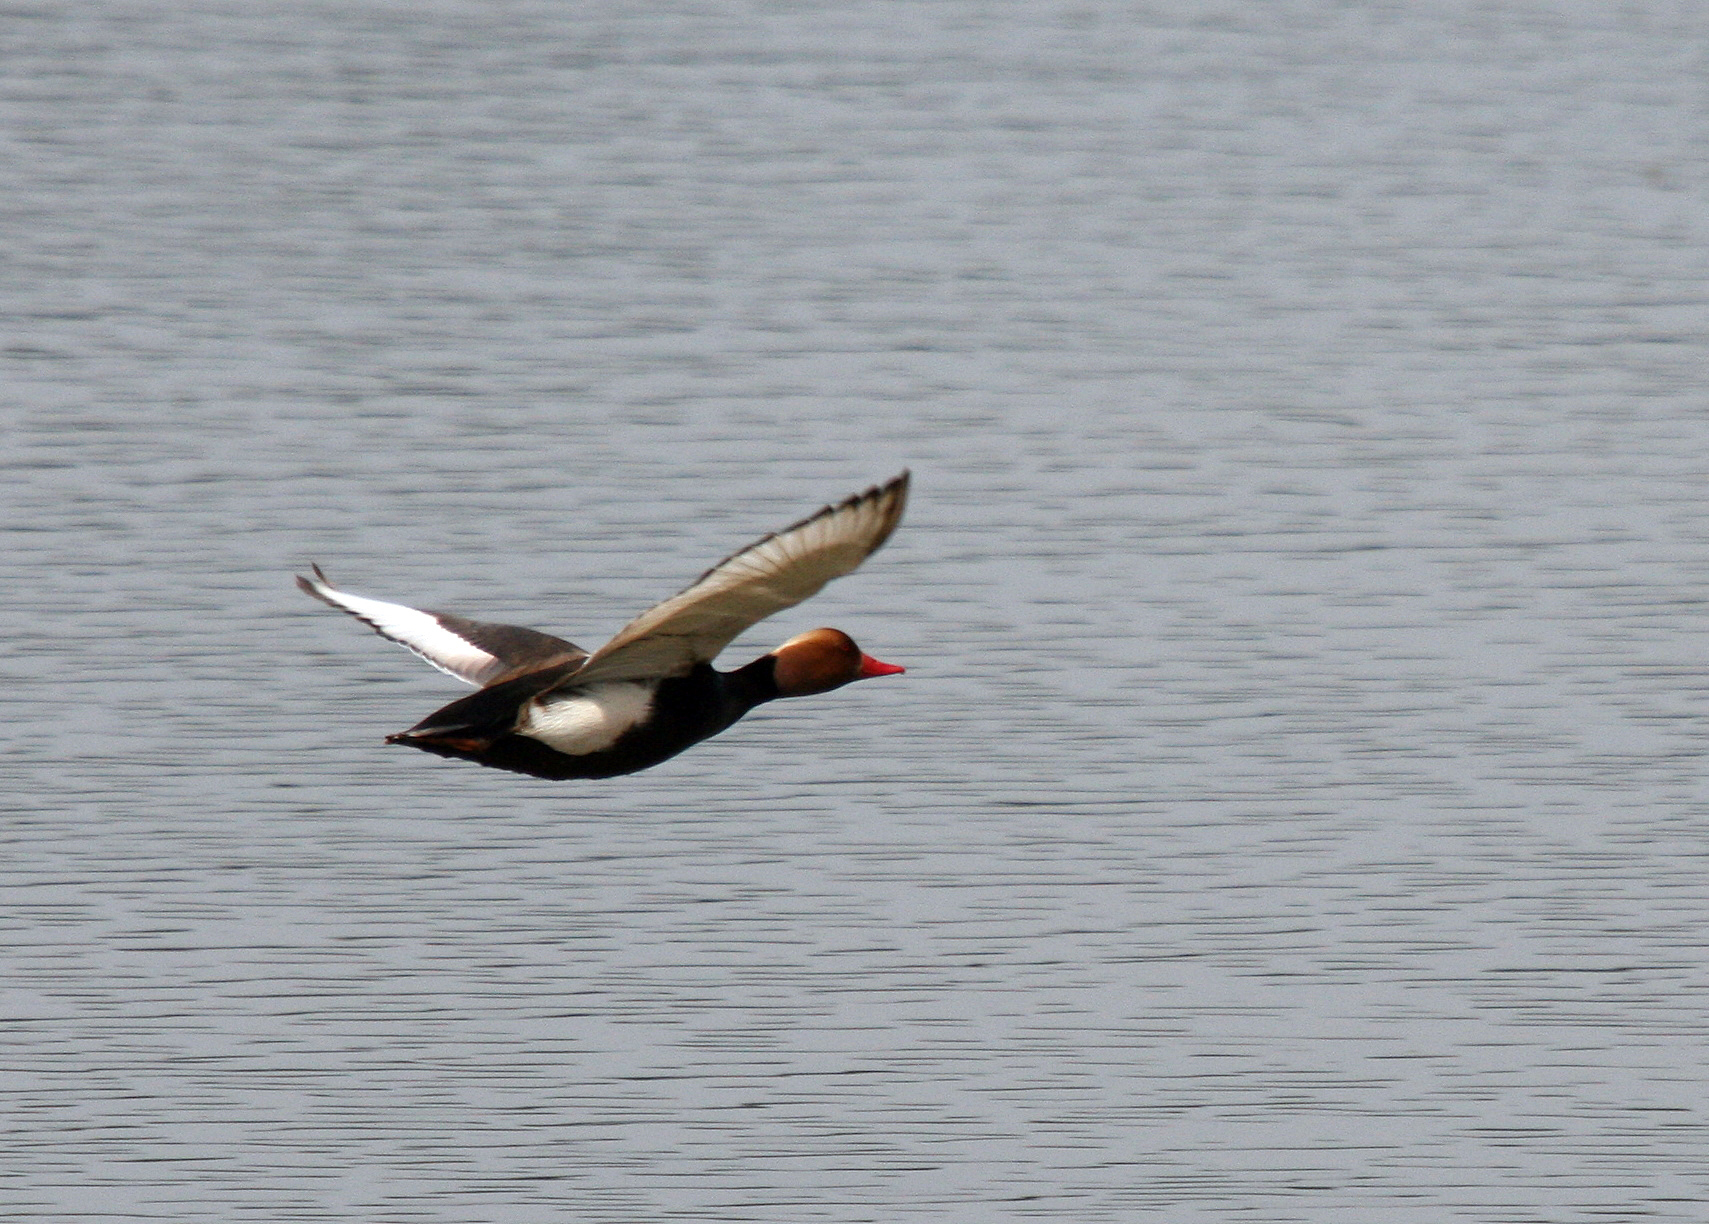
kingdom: Animalia
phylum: Chordata
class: Aves
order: Anseriformes
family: Anatidae
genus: Netta
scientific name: Netta rufina
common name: Red-crested pochard
